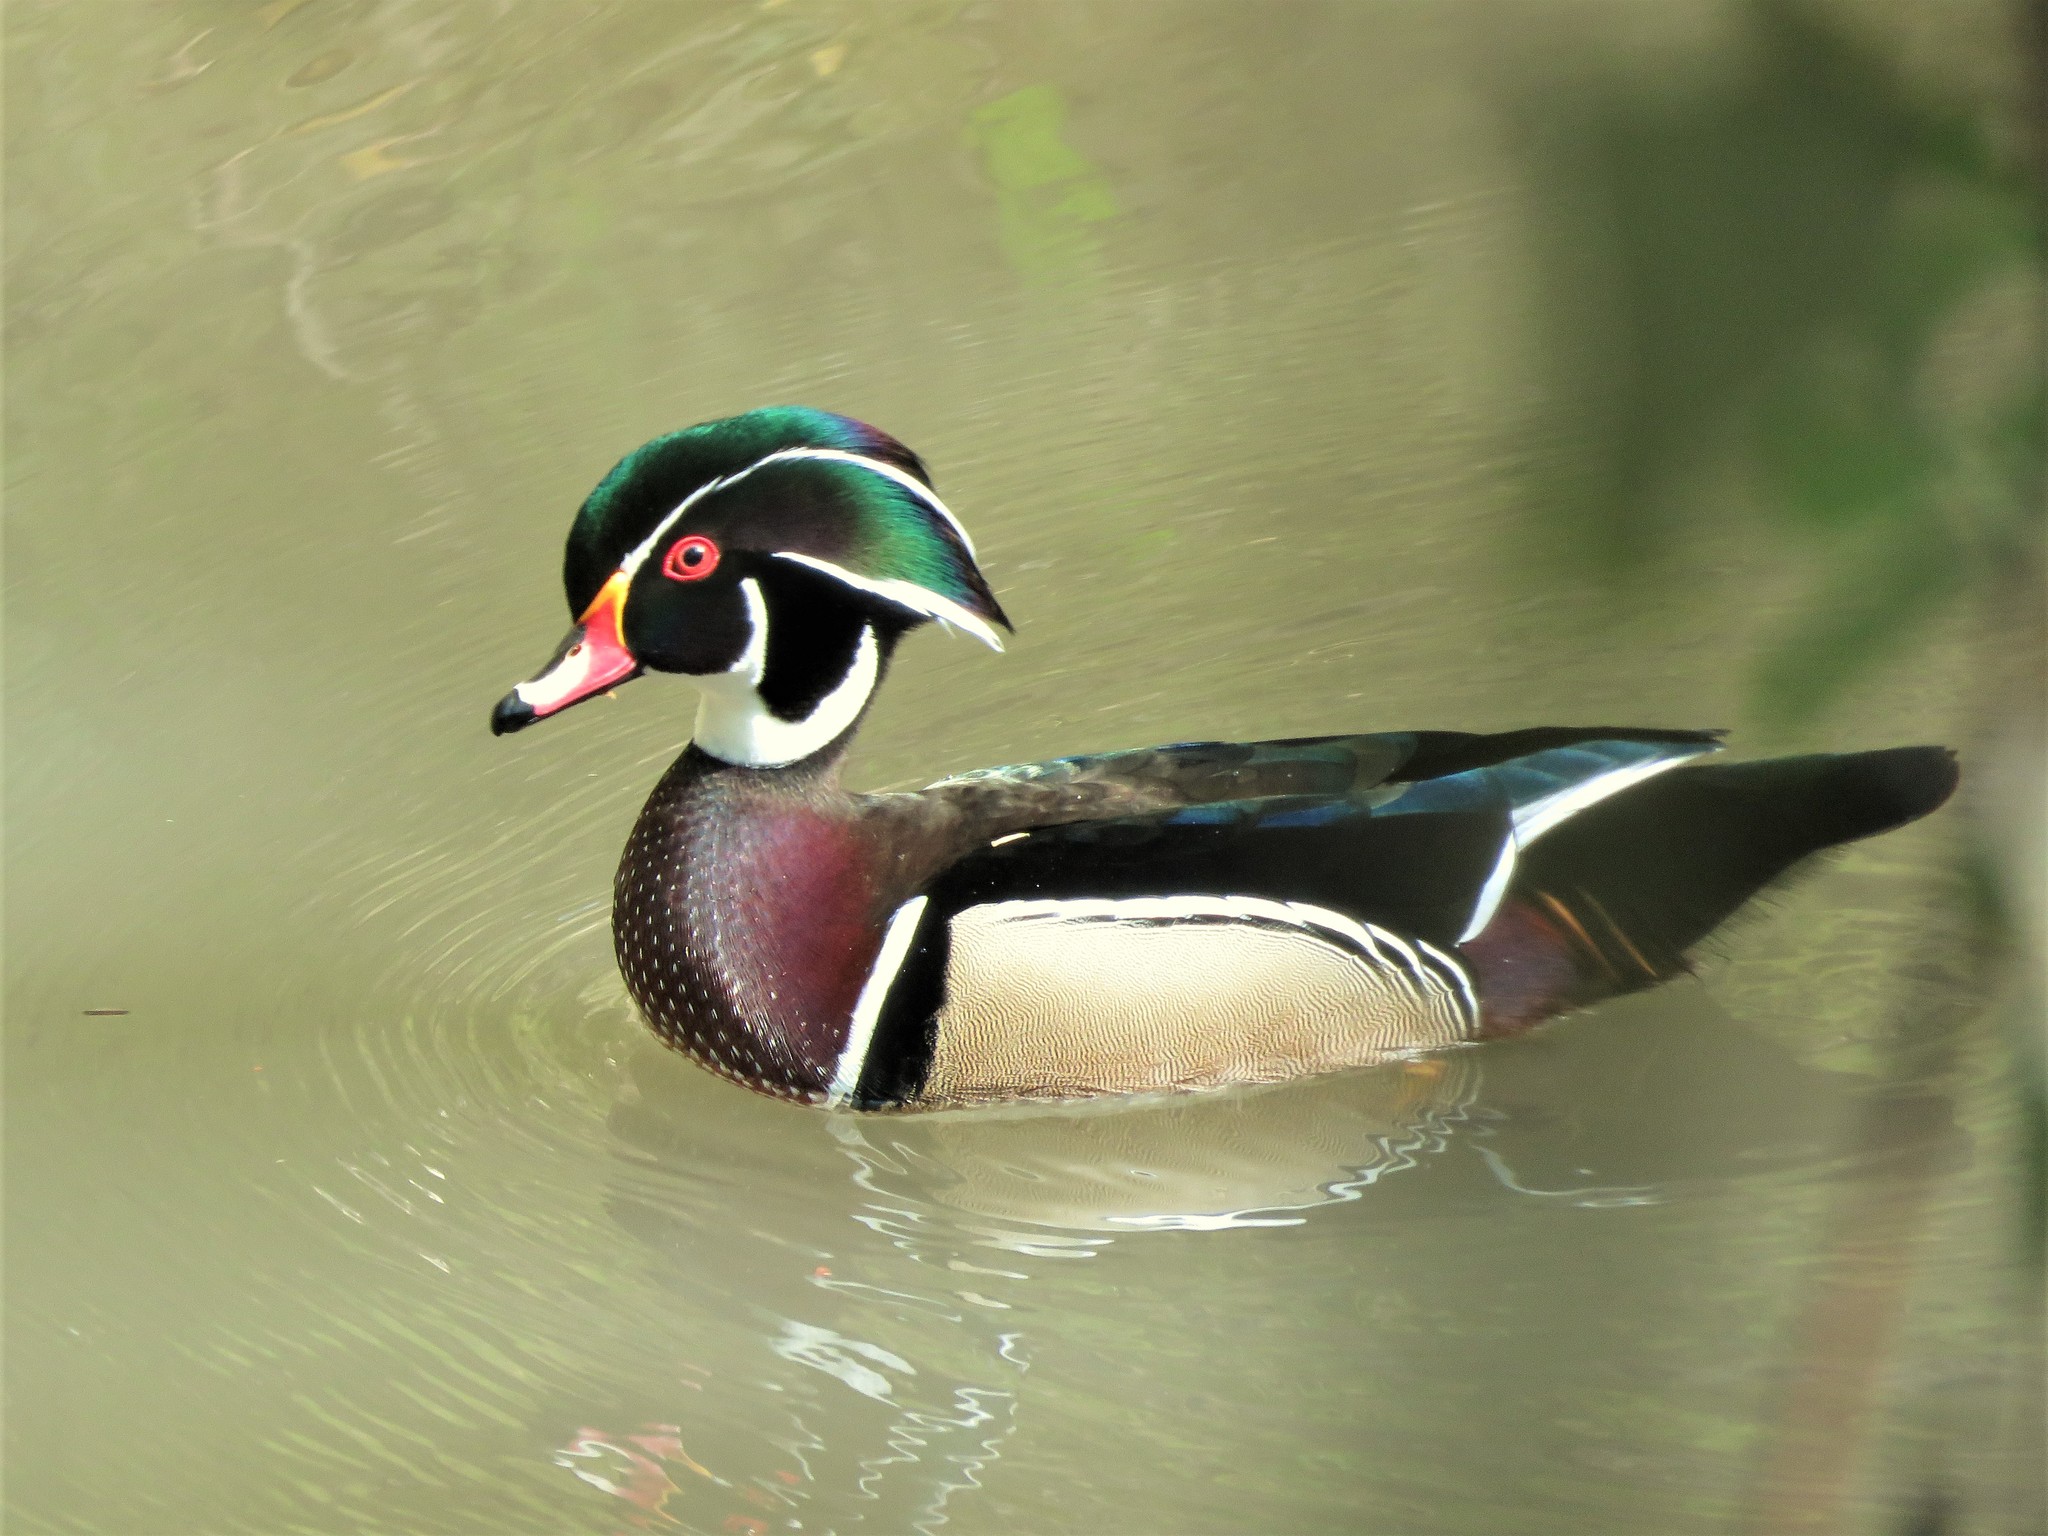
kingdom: Animalia
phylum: Chordata
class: Aves
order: Anseriformes
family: Anatidae
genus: Aix
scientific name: Aix sponsa
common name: Wood duck
